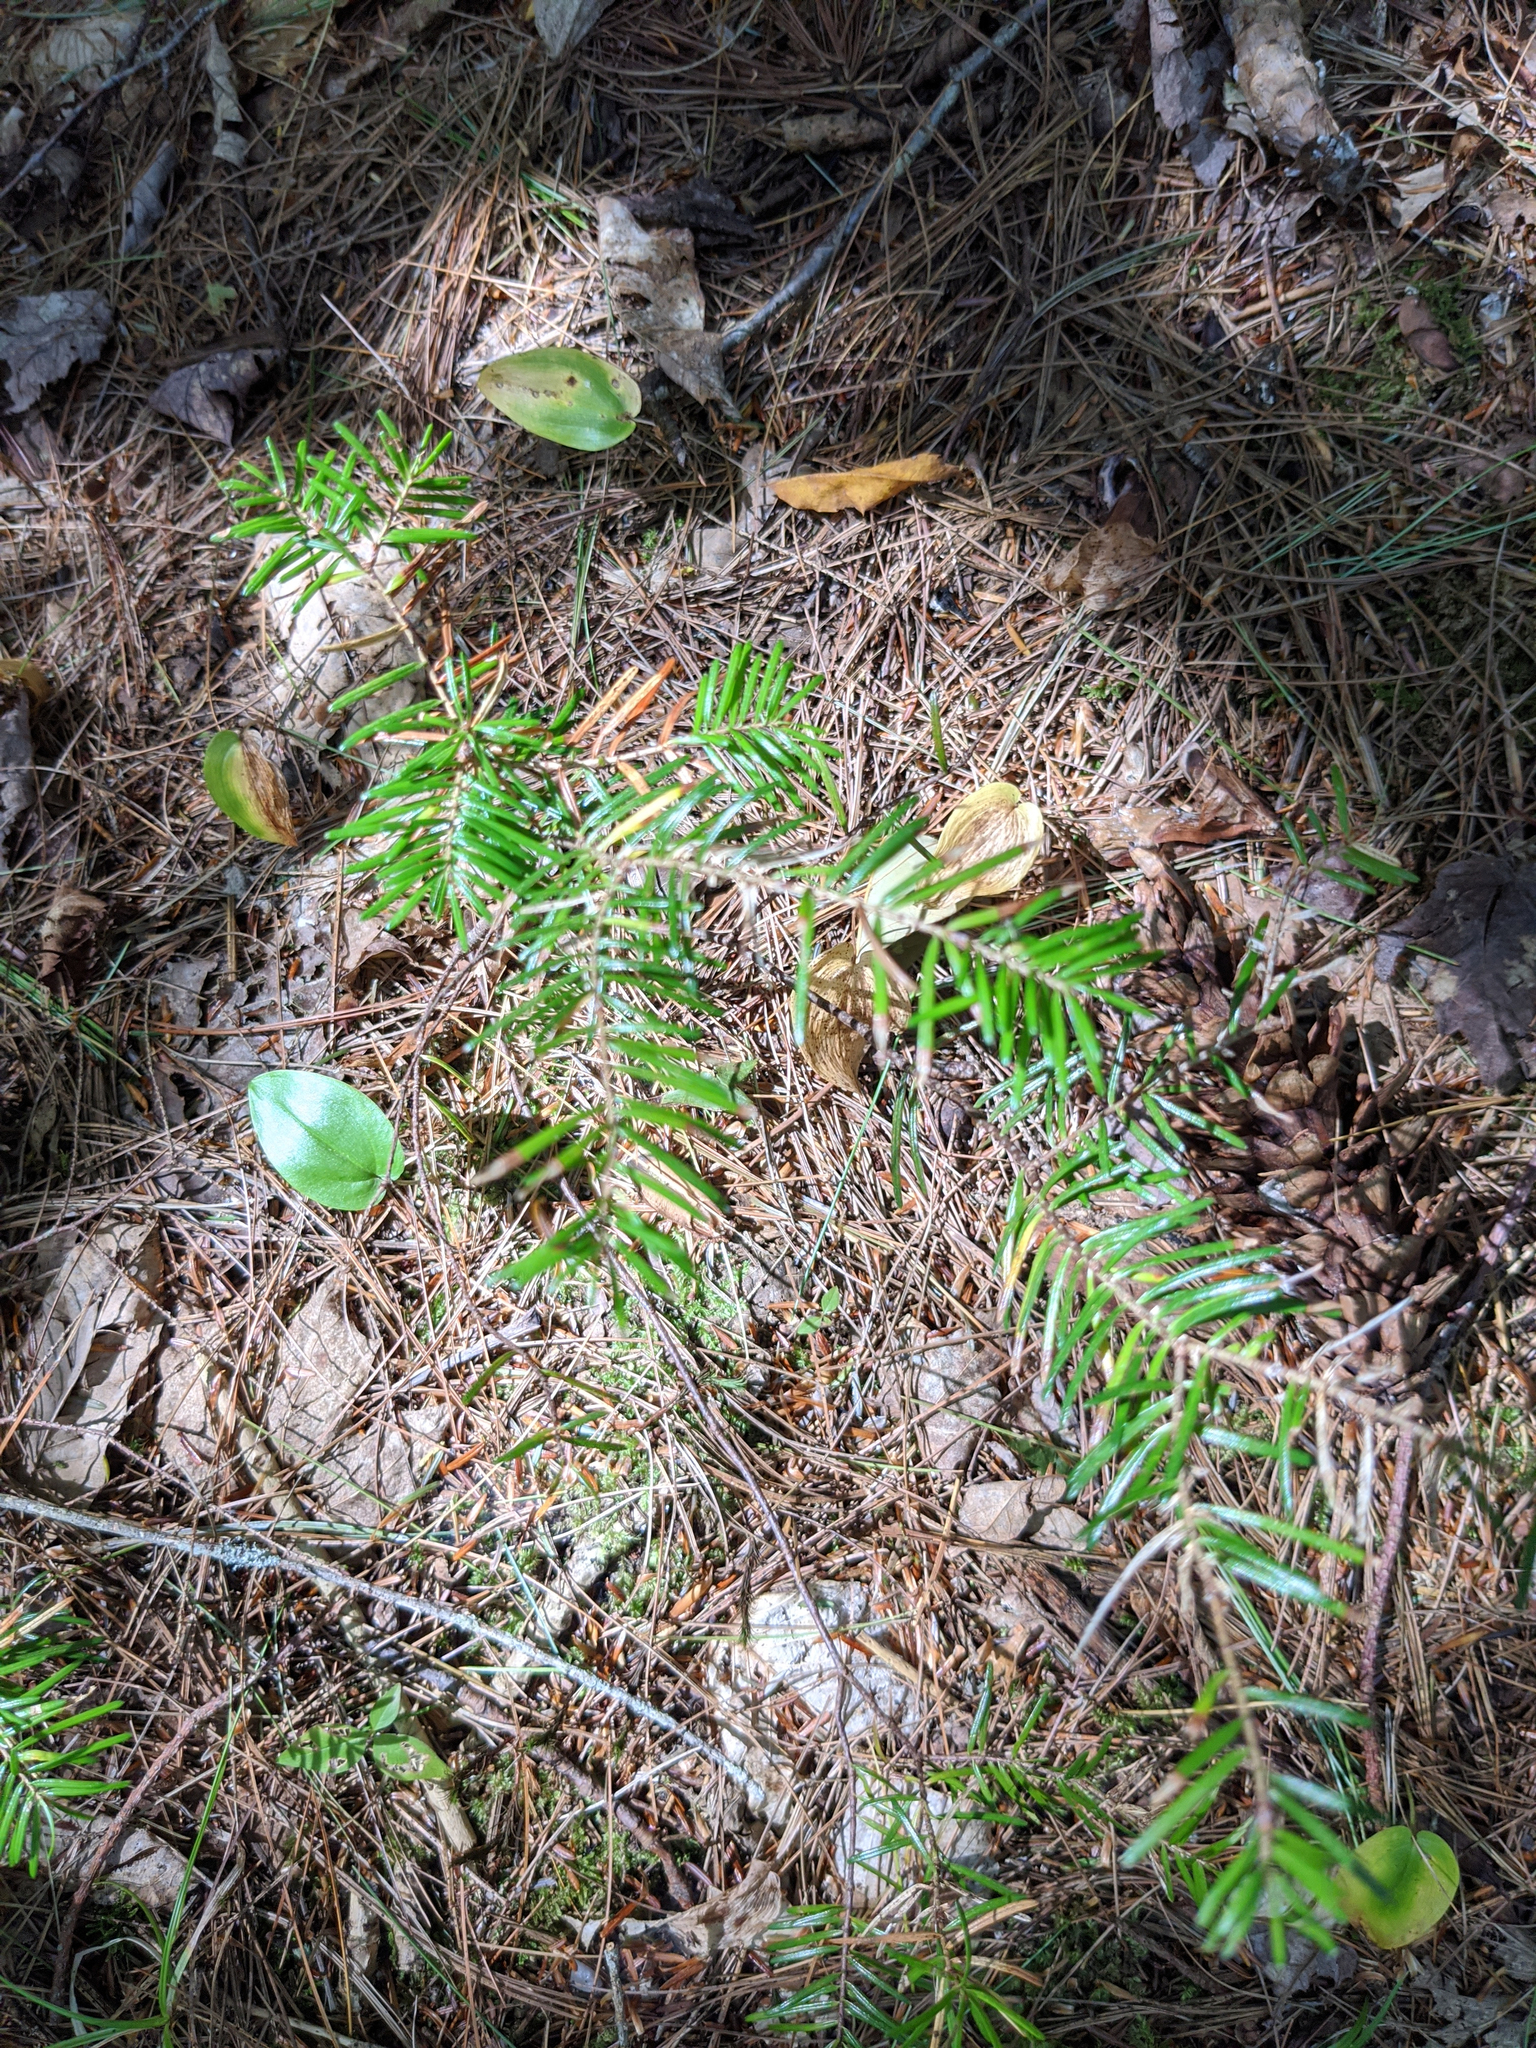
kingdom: Plantae
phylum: Tracheophyta
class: Liliopsida
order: Asparagales
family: Asparagaceae
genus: Maianthemum
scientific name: Maianthemum canadense
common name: False lily-of-the-valley
